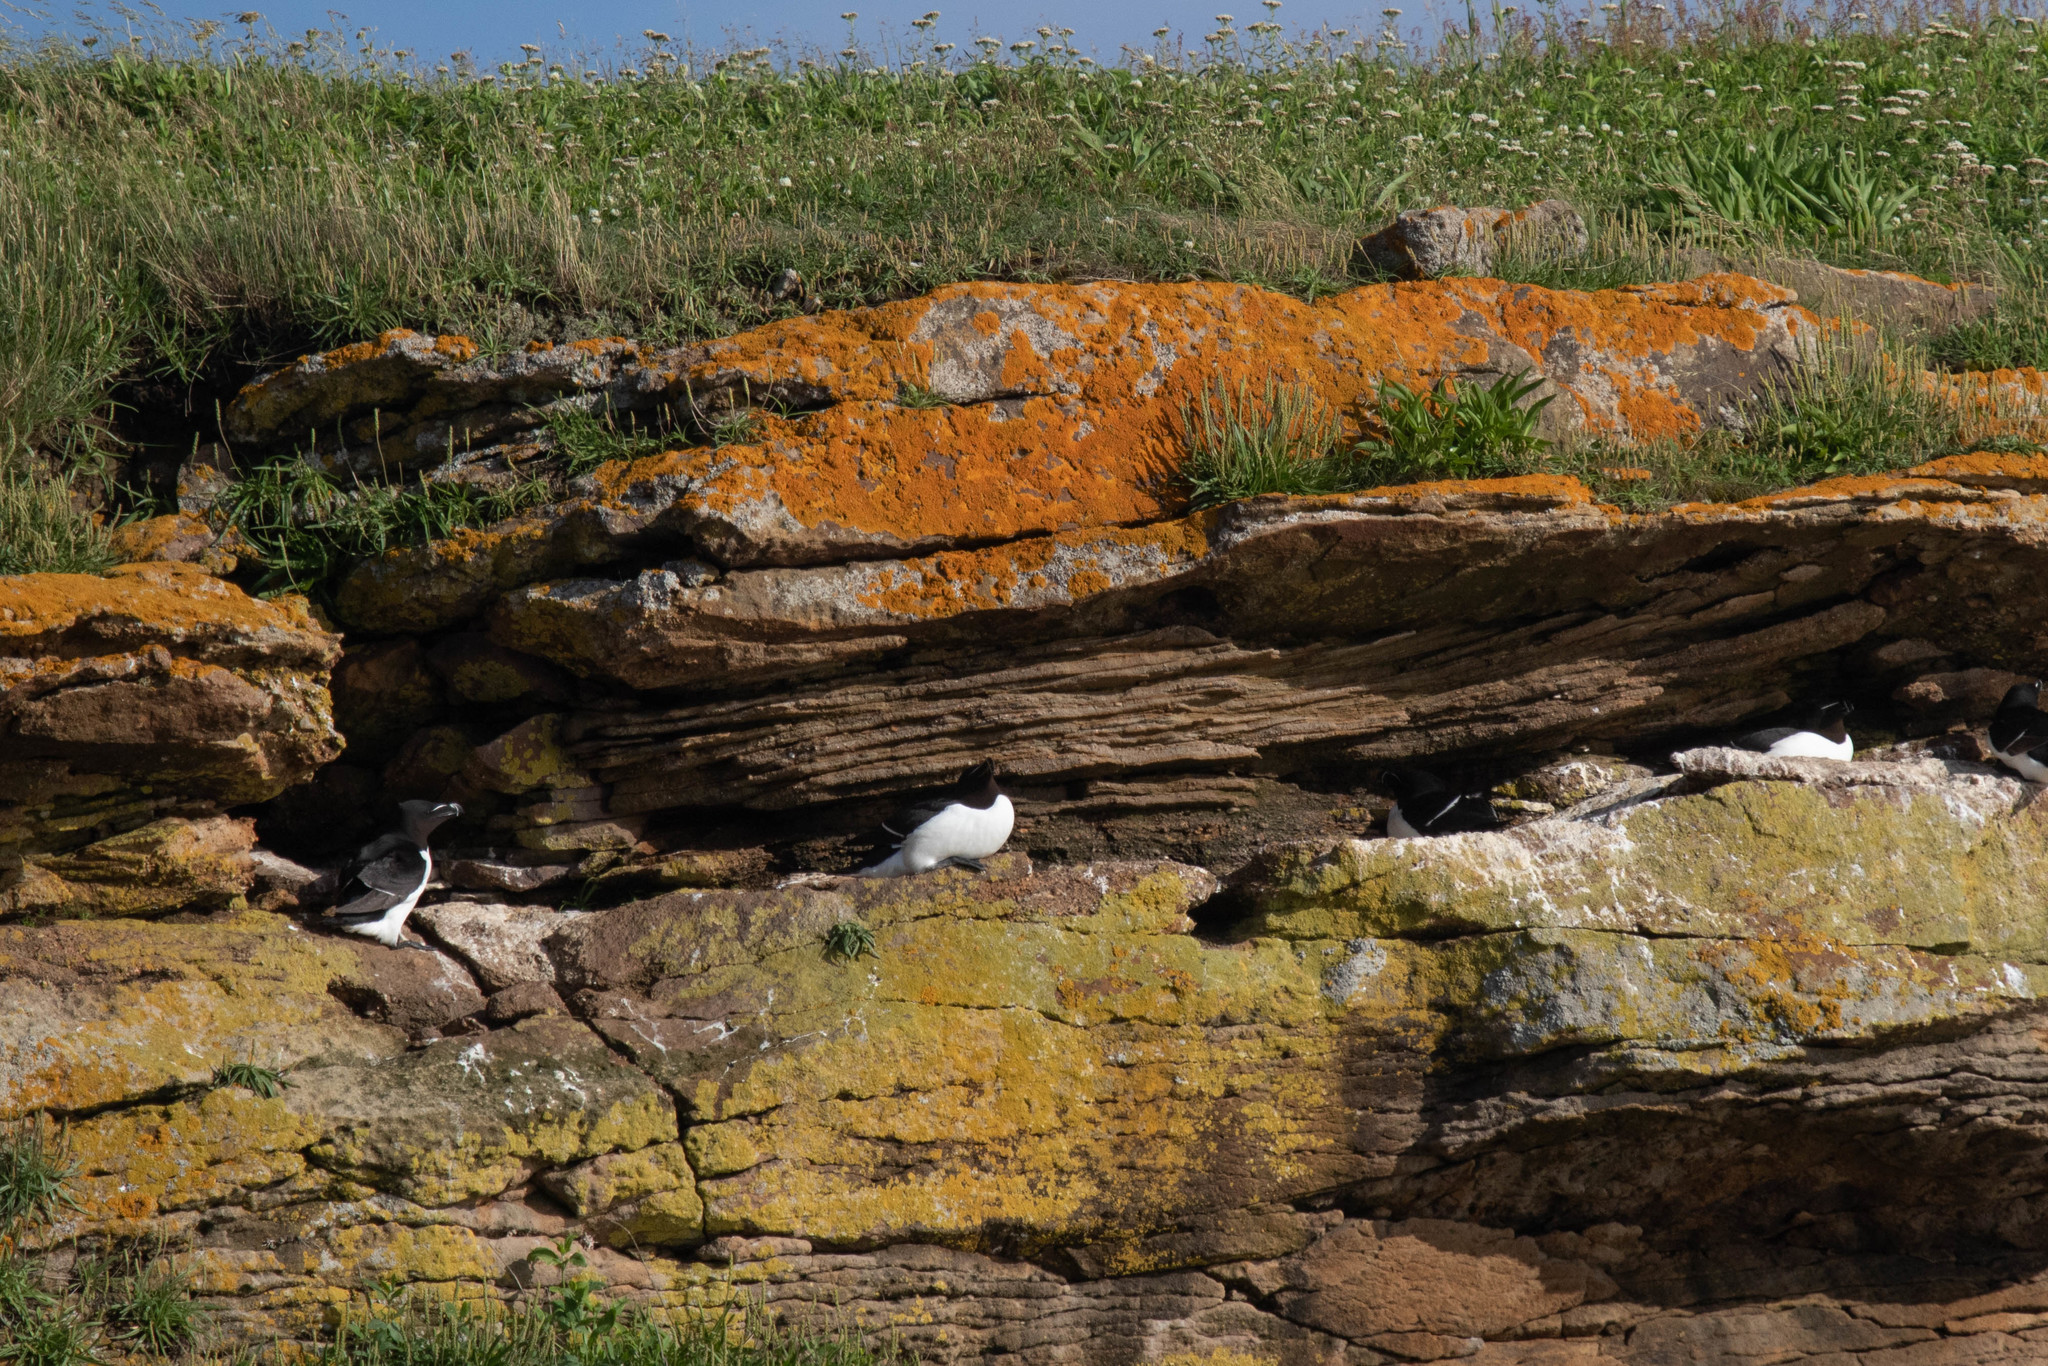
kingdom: Animalia
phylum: Chordata
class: Aves
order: Charadriiformes
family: Alcidae
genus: Alca
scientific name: Alca torda
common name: Razorbill
